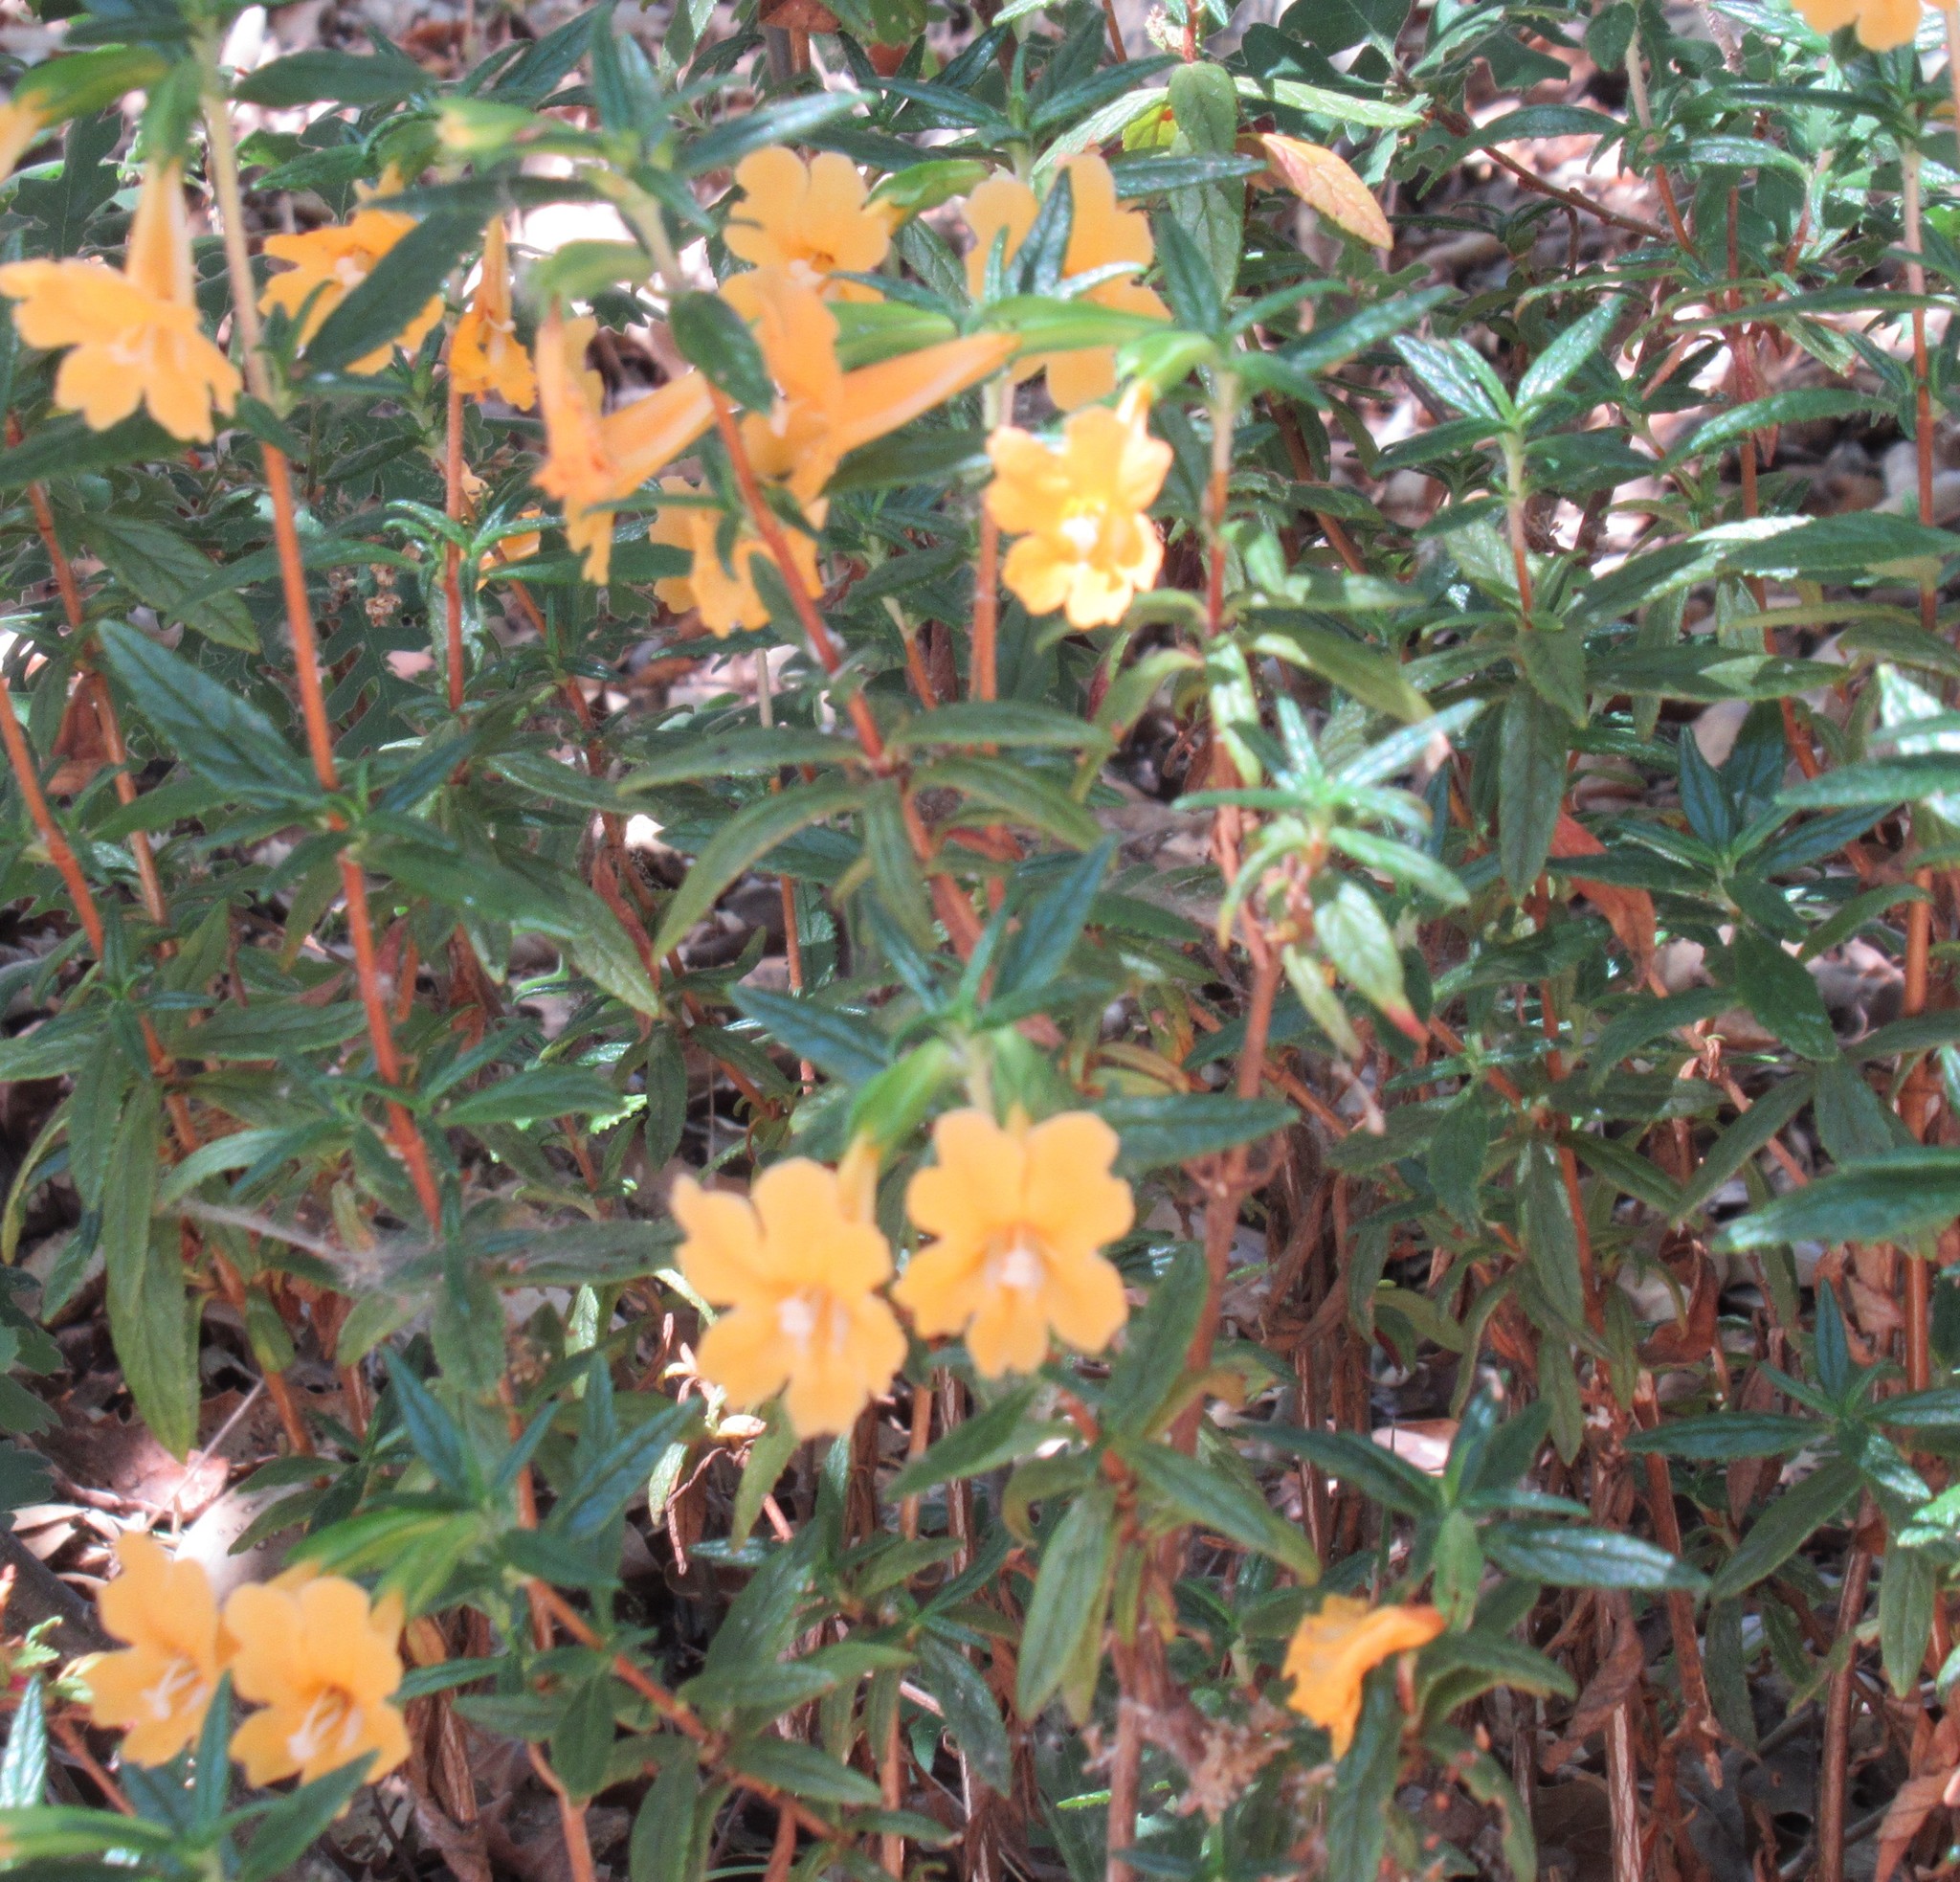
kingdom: Plantae
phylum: Tracheophyta
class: Magnoliopsida
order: Lamiales
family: Phrymaceae
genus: Diplacus
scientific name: Diplacus aurantiacus
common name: Bush monkey-flower
